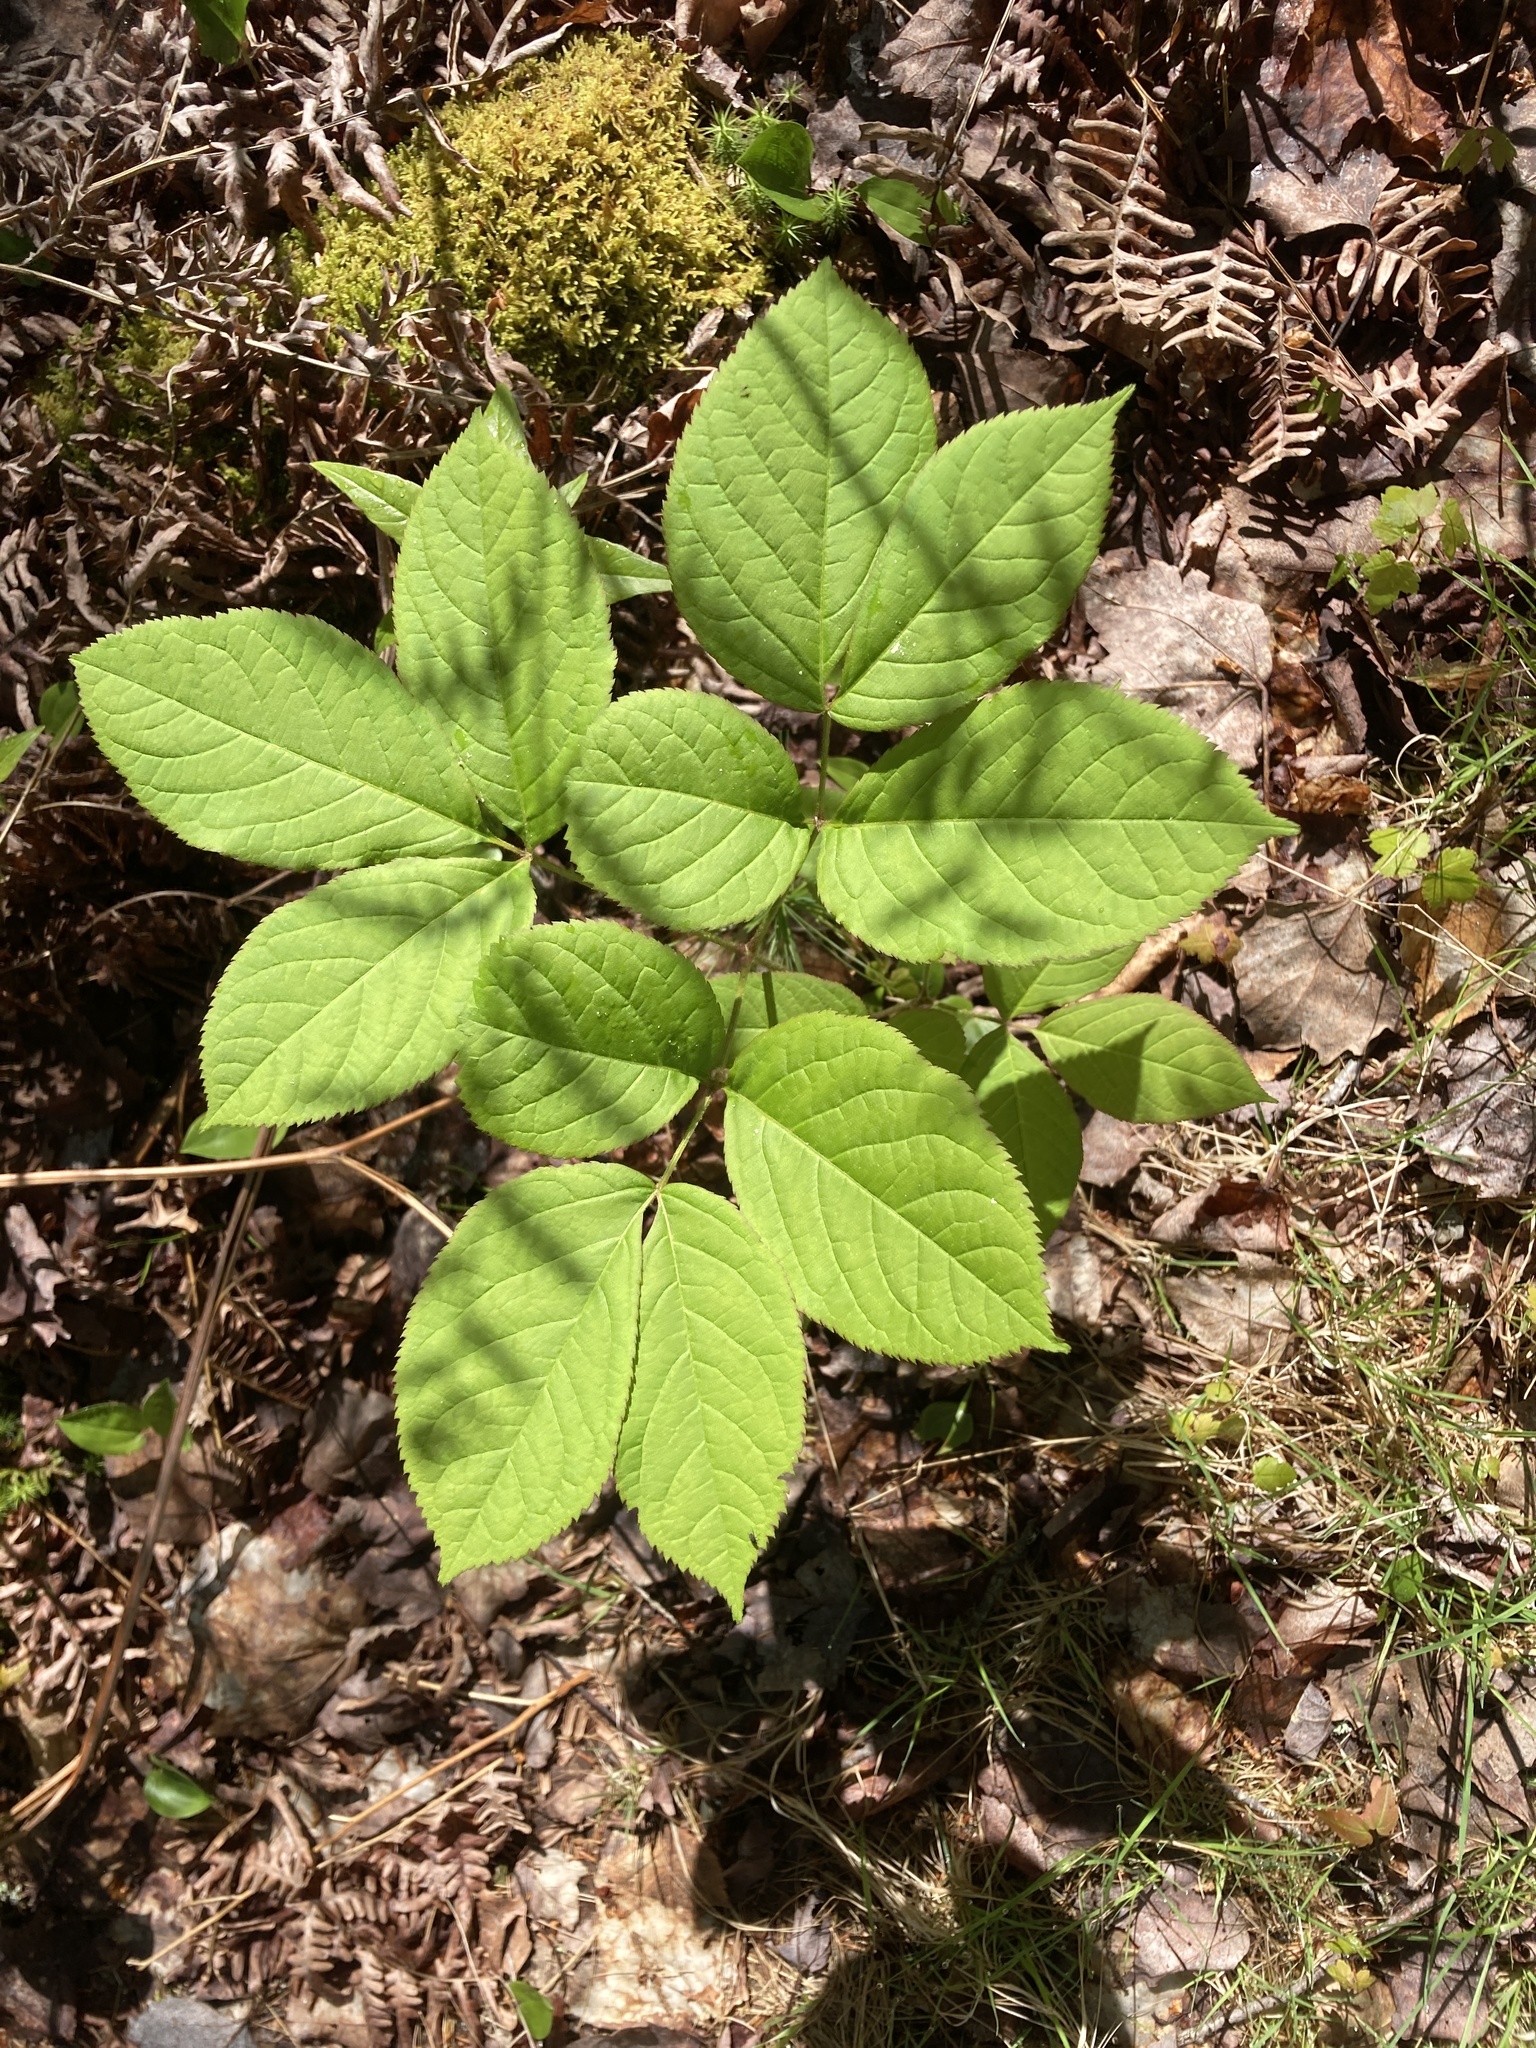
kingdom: Plantae
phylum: Tracheophyta
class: Magnoliopsida
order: Apiales
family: Araliaceae
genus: Aralia
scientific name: Aralia nudicaulis
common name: Wild sarsaparilla
